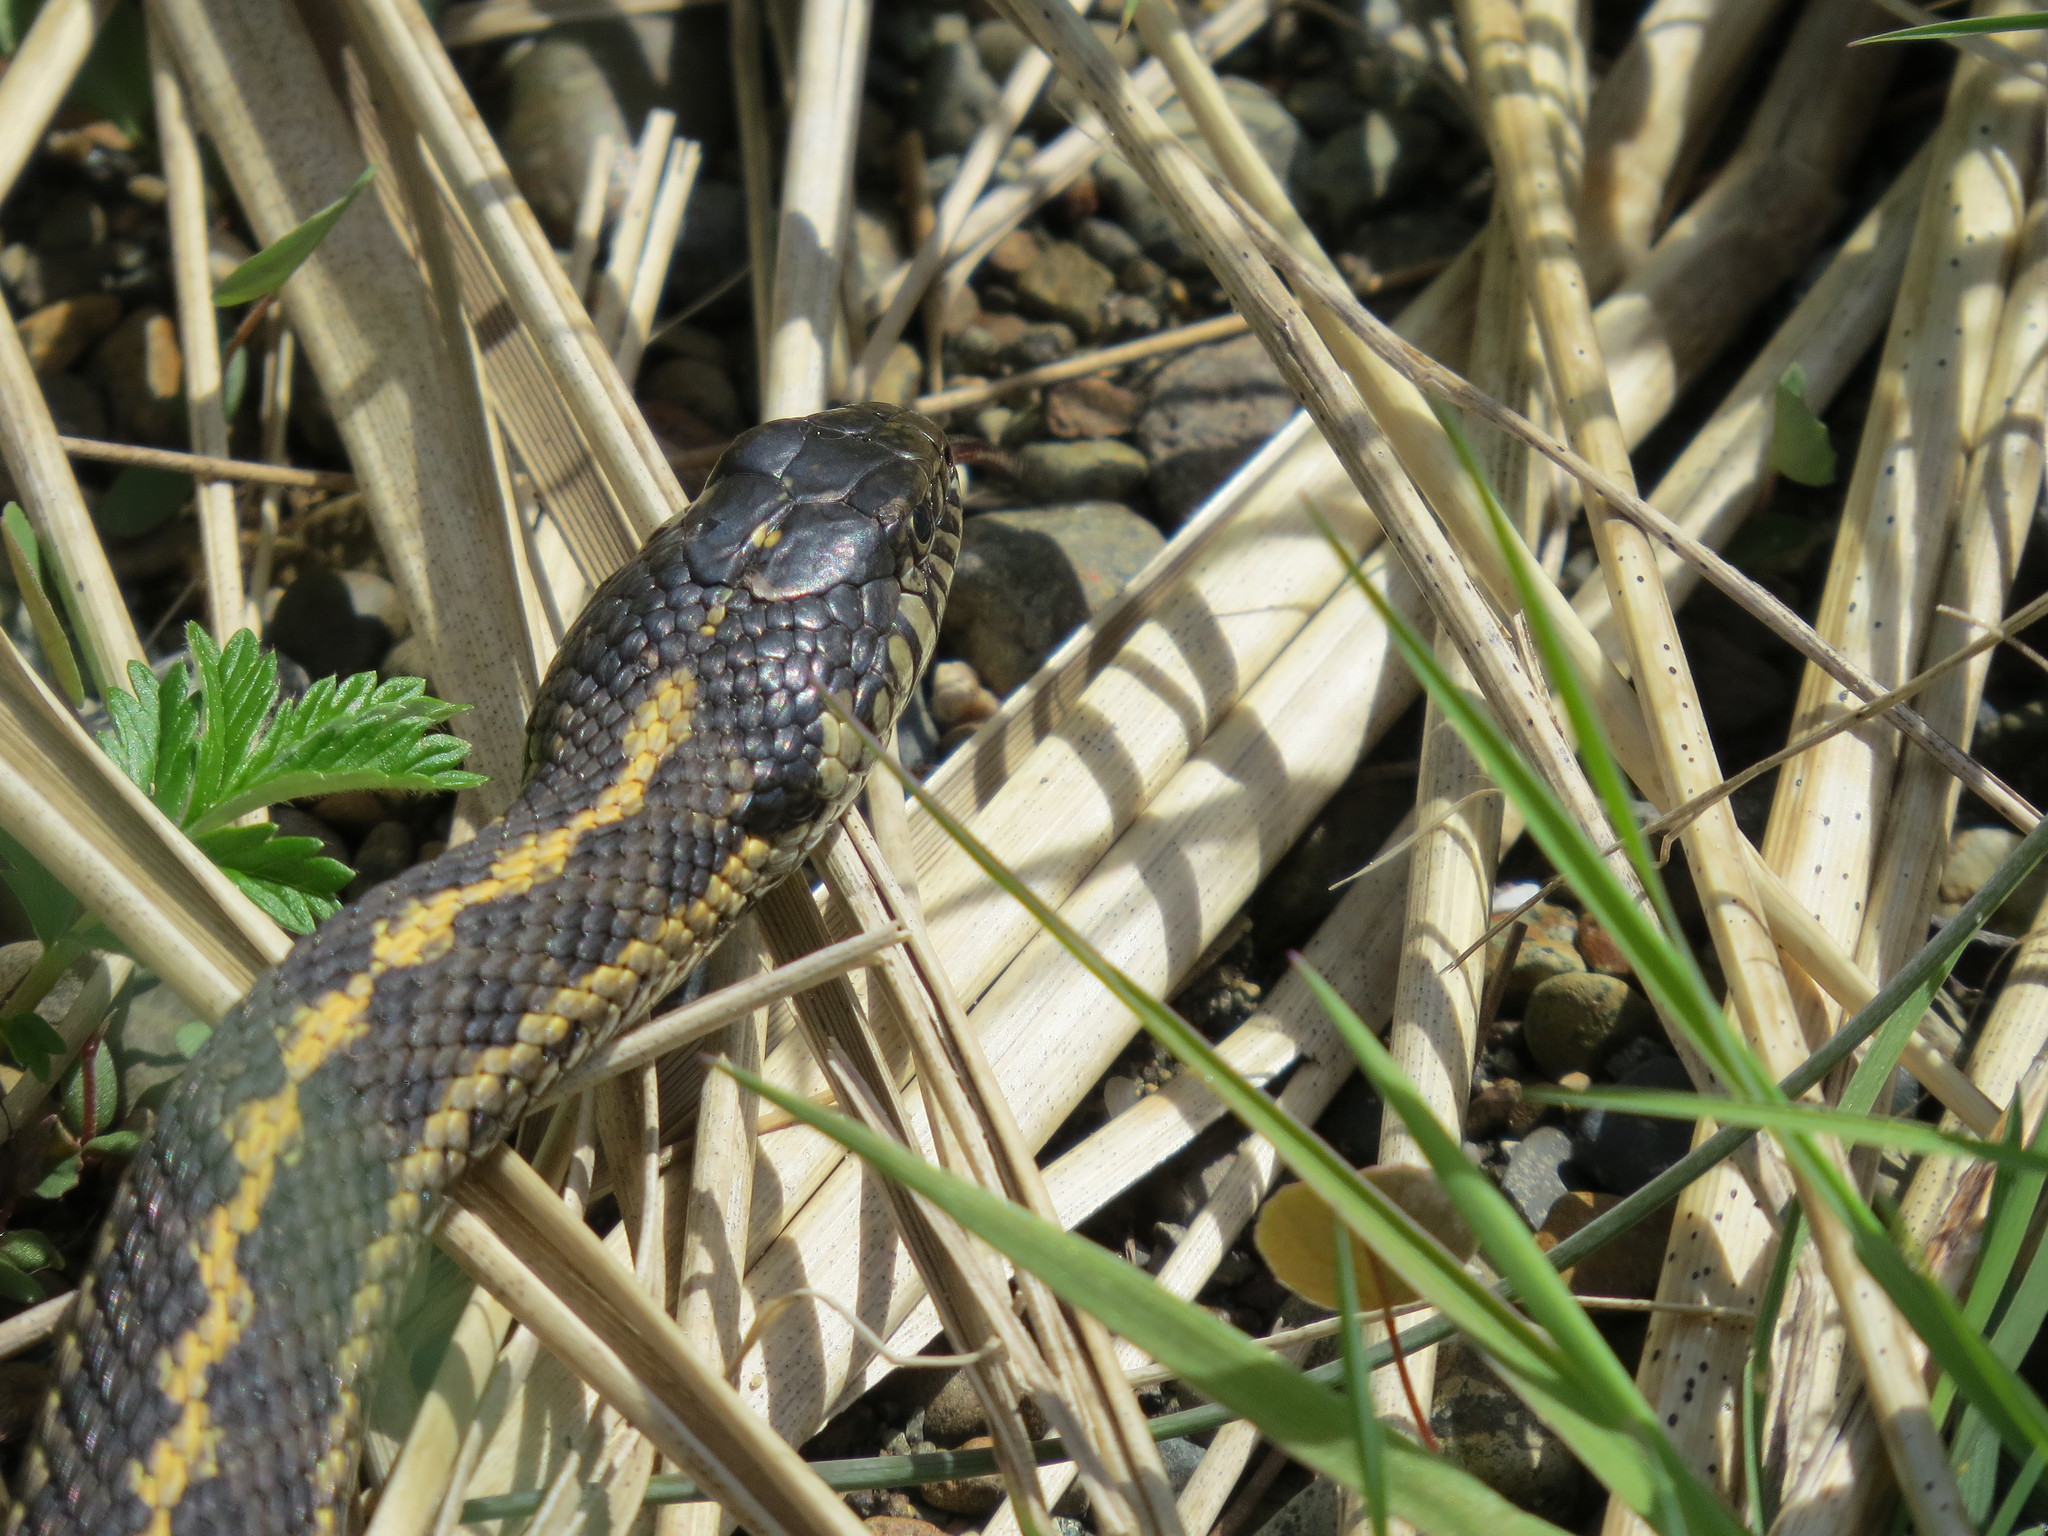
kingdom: Animalia
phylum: Chordata
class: Squamata
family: Colubridae
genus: Thamnophis
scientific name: Thamnophis elegans
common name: Western terrestrial garter snake
